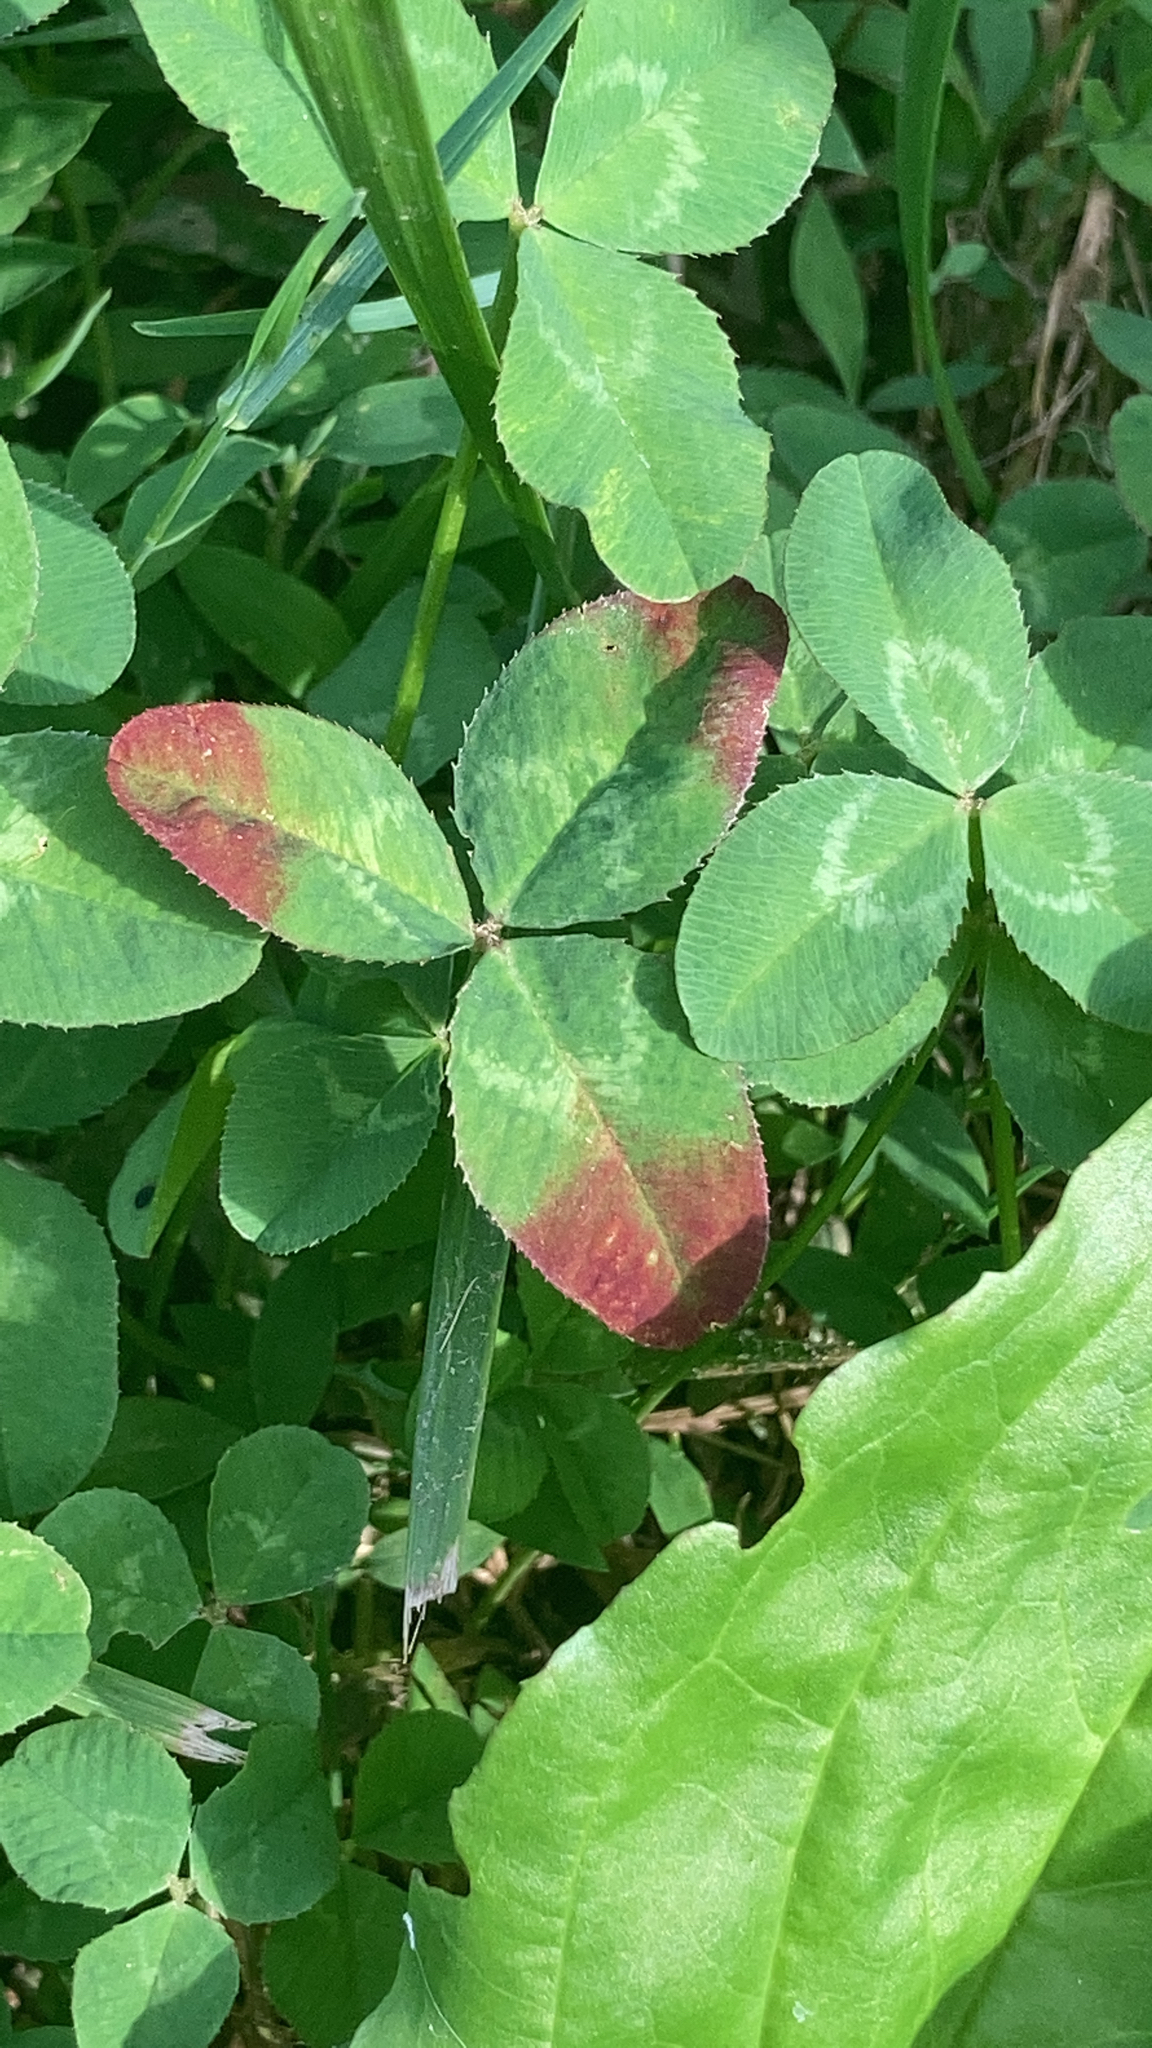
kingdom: Plantae
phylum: Tracheophyta
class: Magnoliopsida
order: Fabales
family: Fabaceae
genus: Trifolium
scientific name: Trifolium repens
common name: White clover
